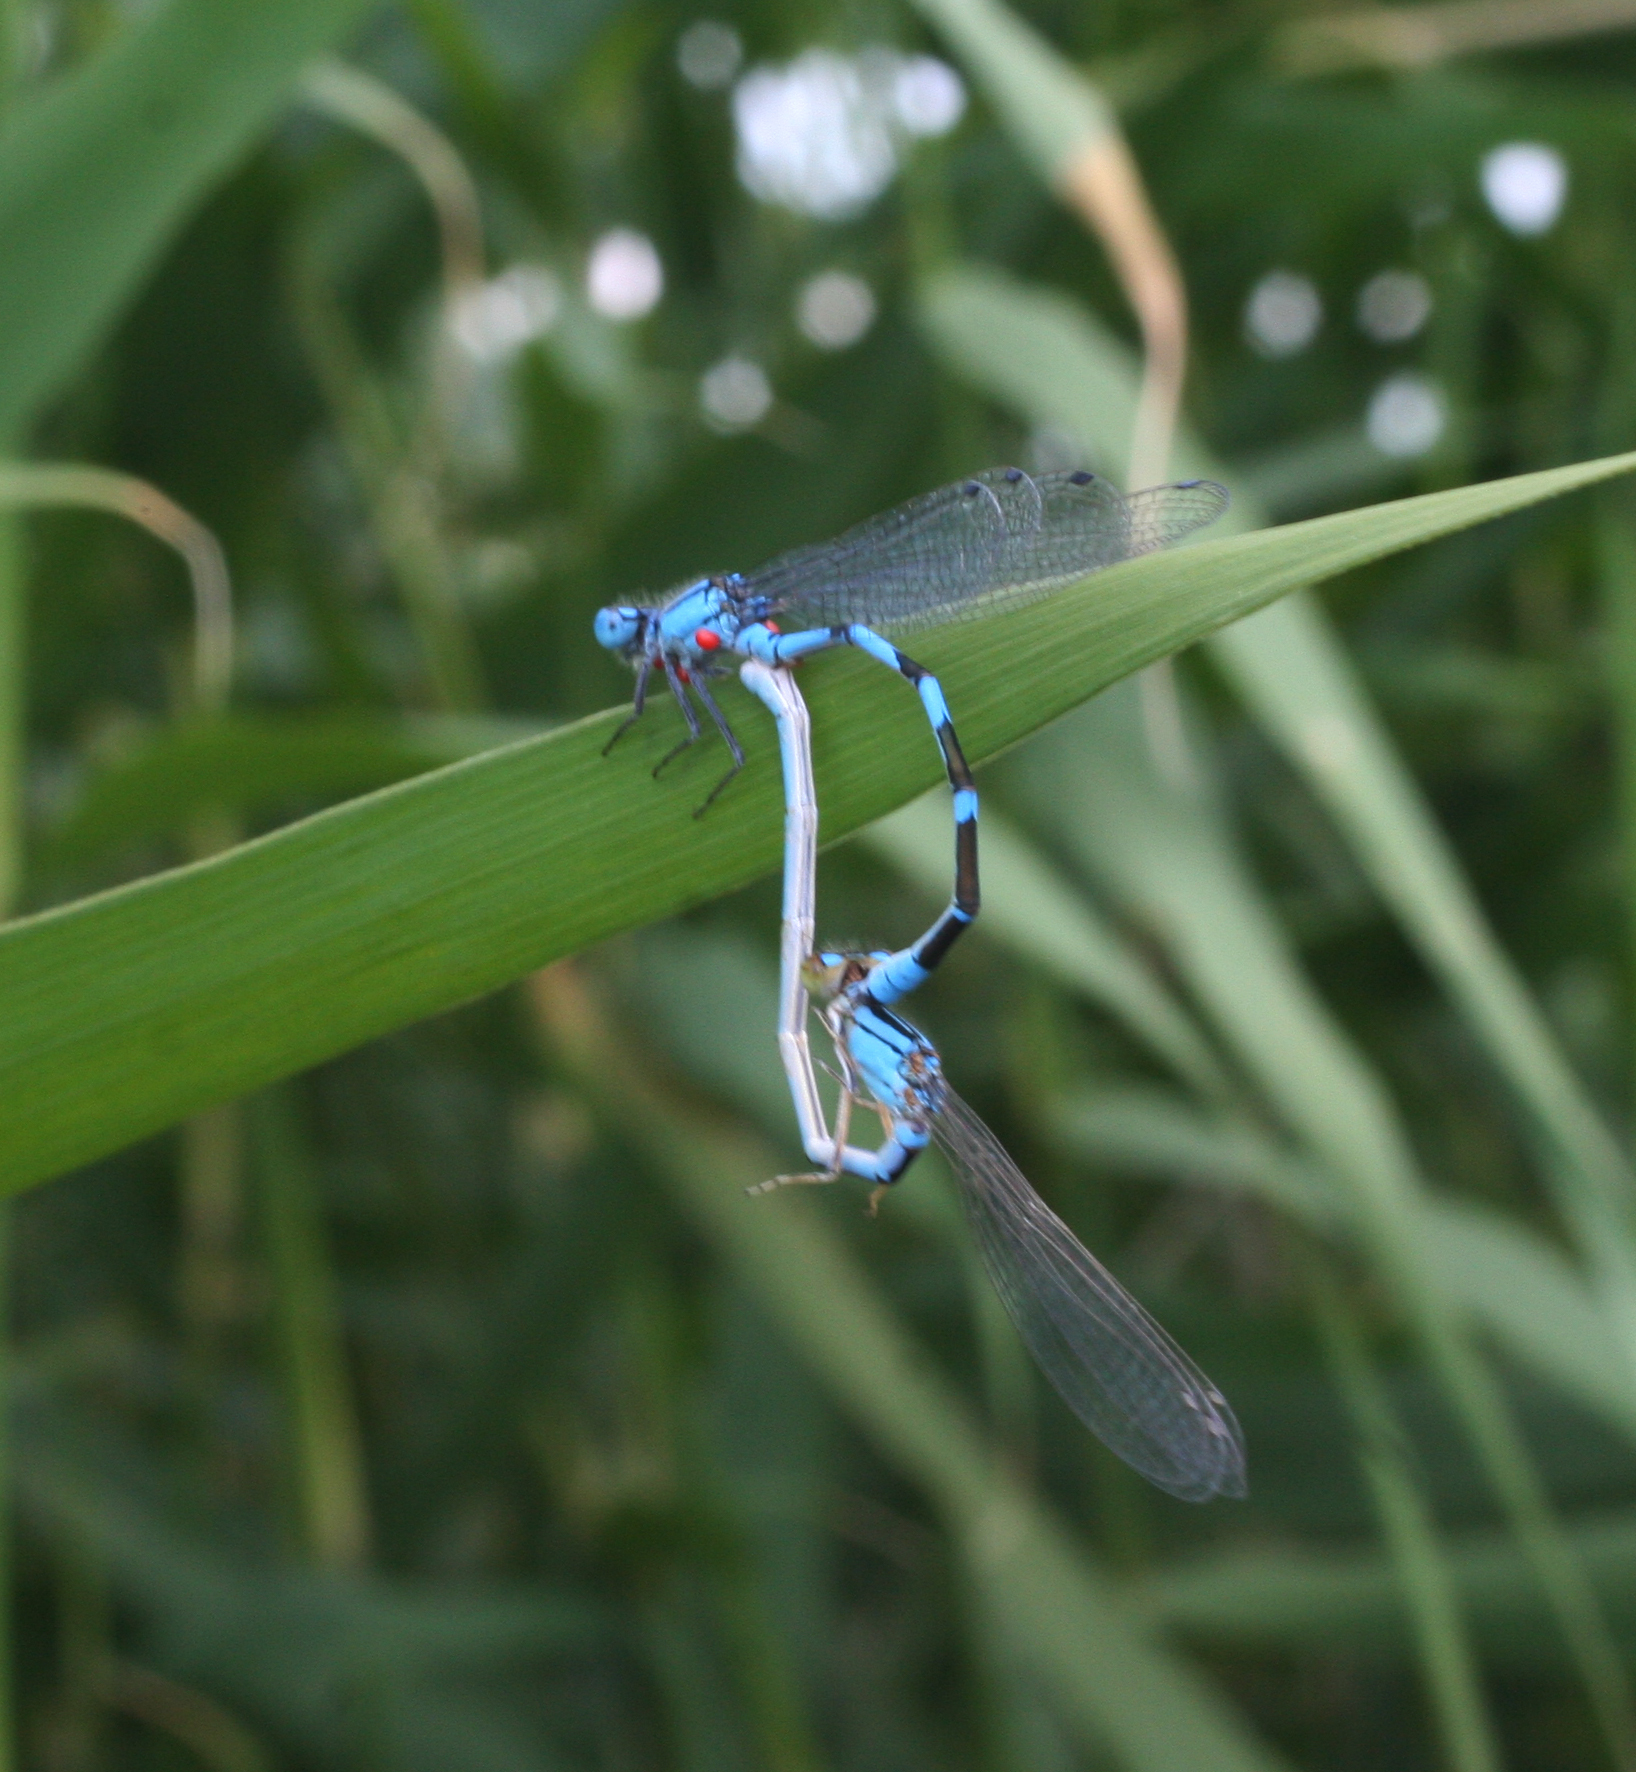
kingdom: Animalia
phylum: Arthropoda
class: Insecta
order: Odonata
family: Coenagrionidae
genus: Enallagma
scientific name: Enallagma cyathigerum
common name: Common blue damselfly
